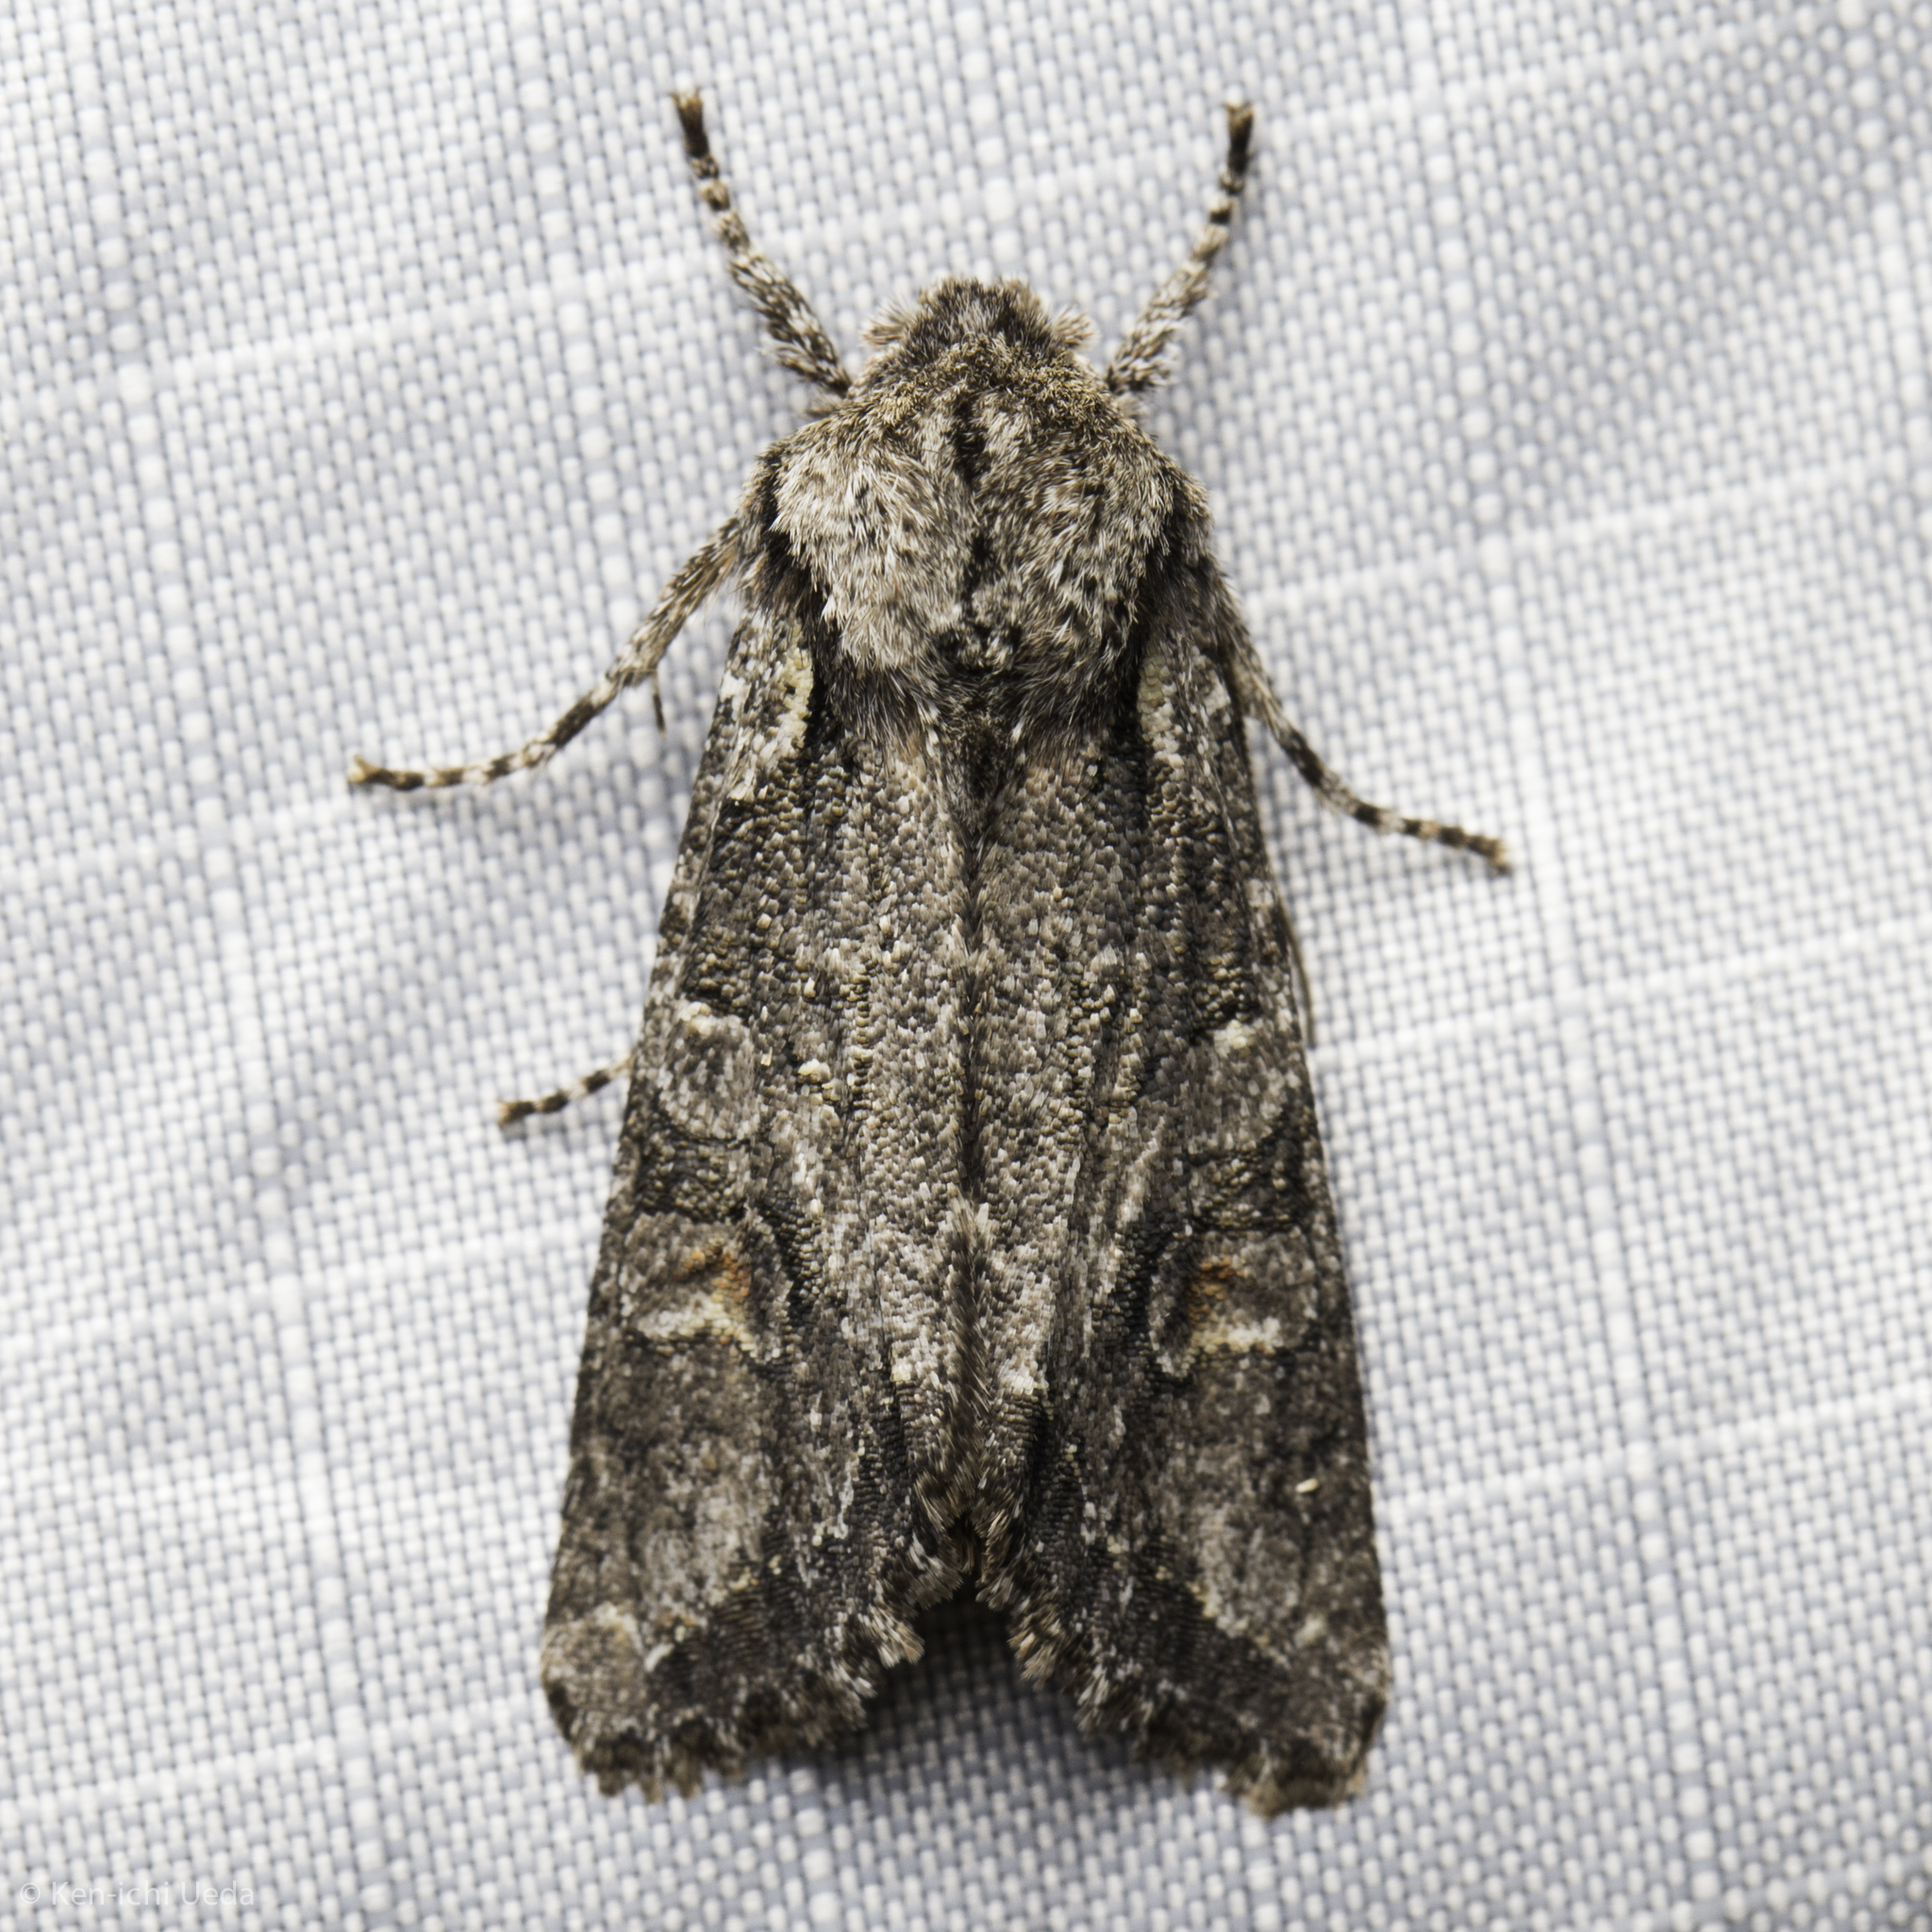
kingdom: Animalia
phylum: Arthropoda
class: Insecta
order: Lepidoptera
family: Noctuidae
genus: Egira
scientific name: Egira hiemalis
